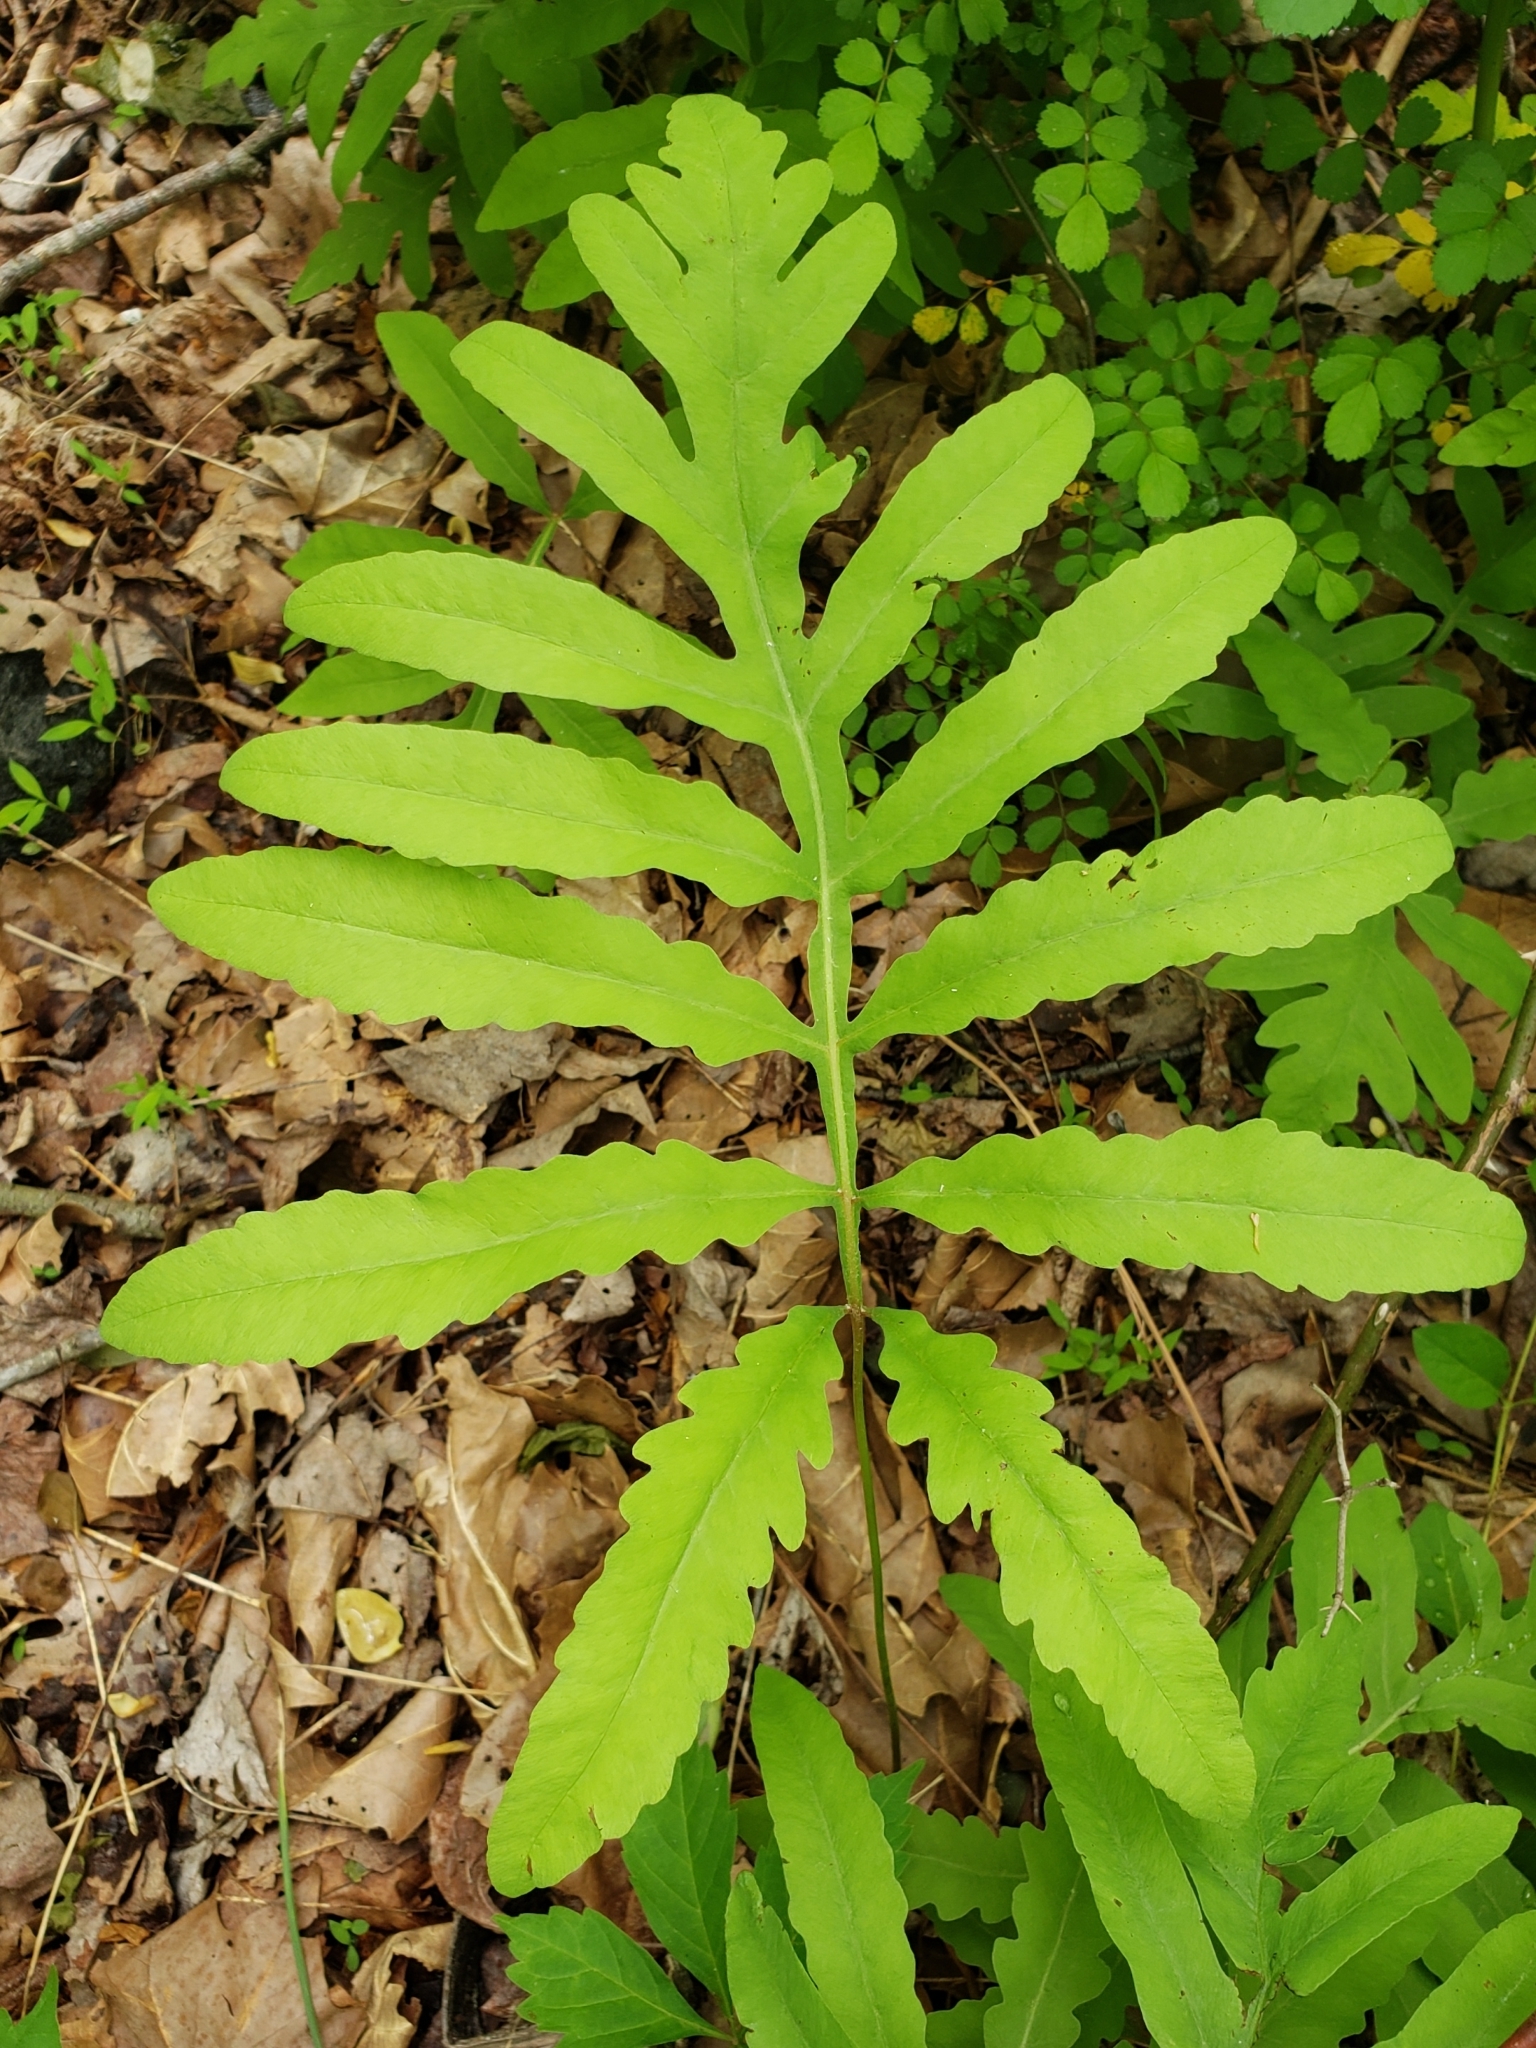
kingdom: Plantae
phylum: Tracheophyta
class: Polypodiopsida
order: Polypodiales
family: Onocleaceae
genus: Onoclea
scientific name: Onoclea sensibilis
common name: Sensitive fern
